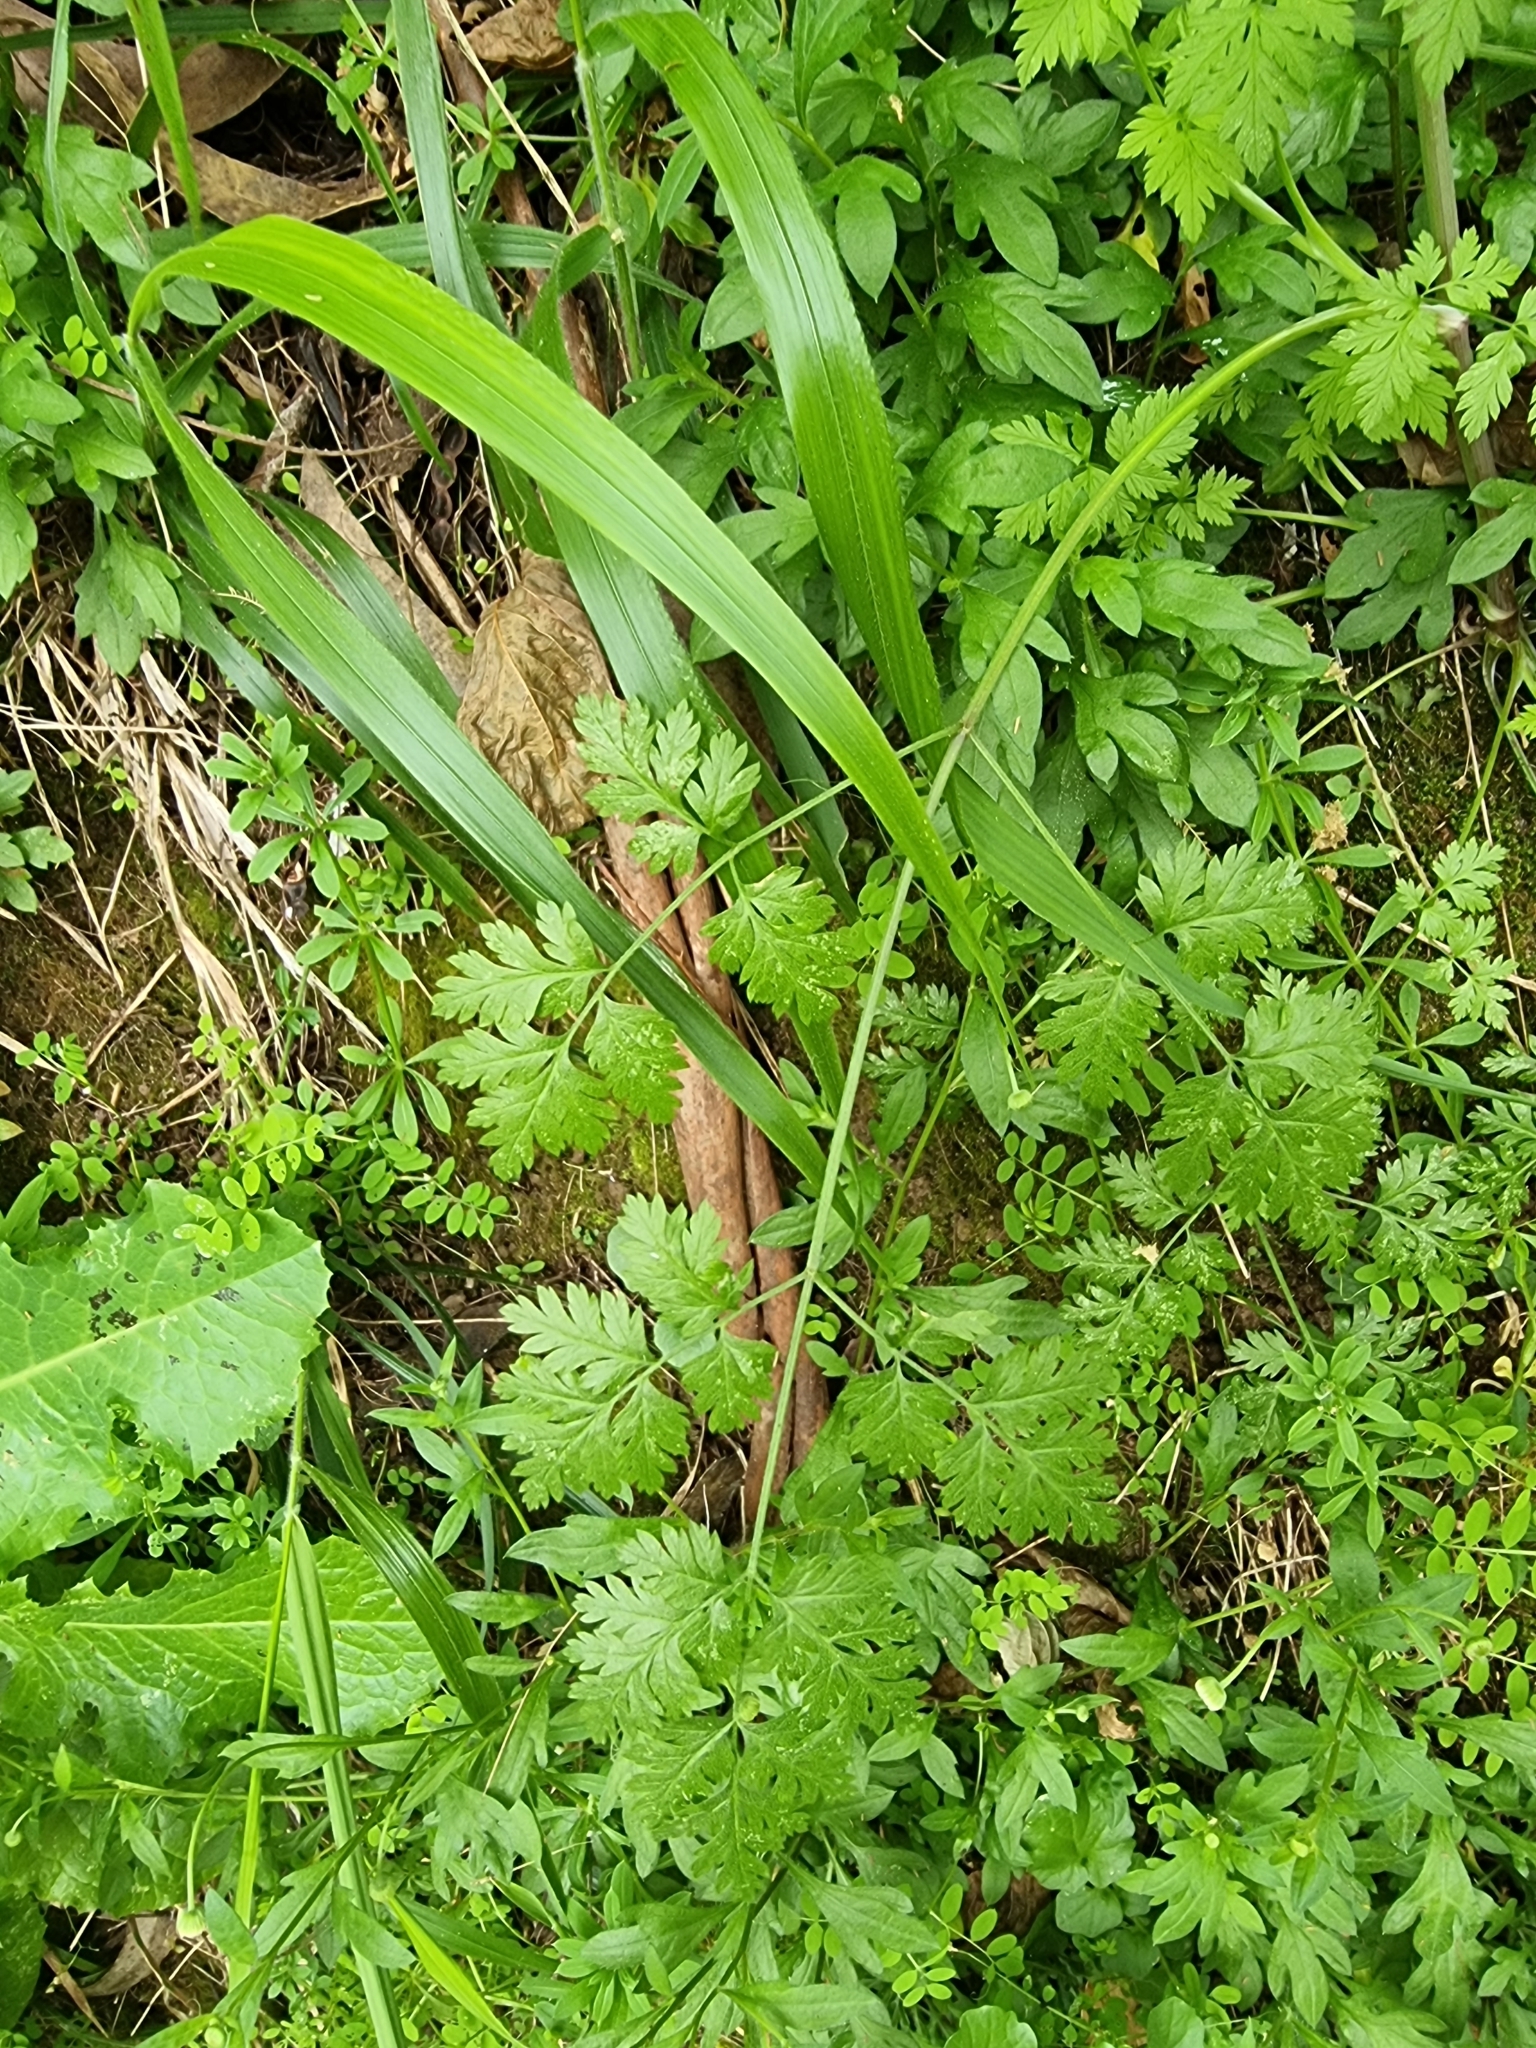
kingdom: Plantae
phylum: Tracheophyta
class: Magnoliopsida
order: Apiales
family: Apiaceae
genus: Oenanthe
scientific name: Oenanthe divaricata
